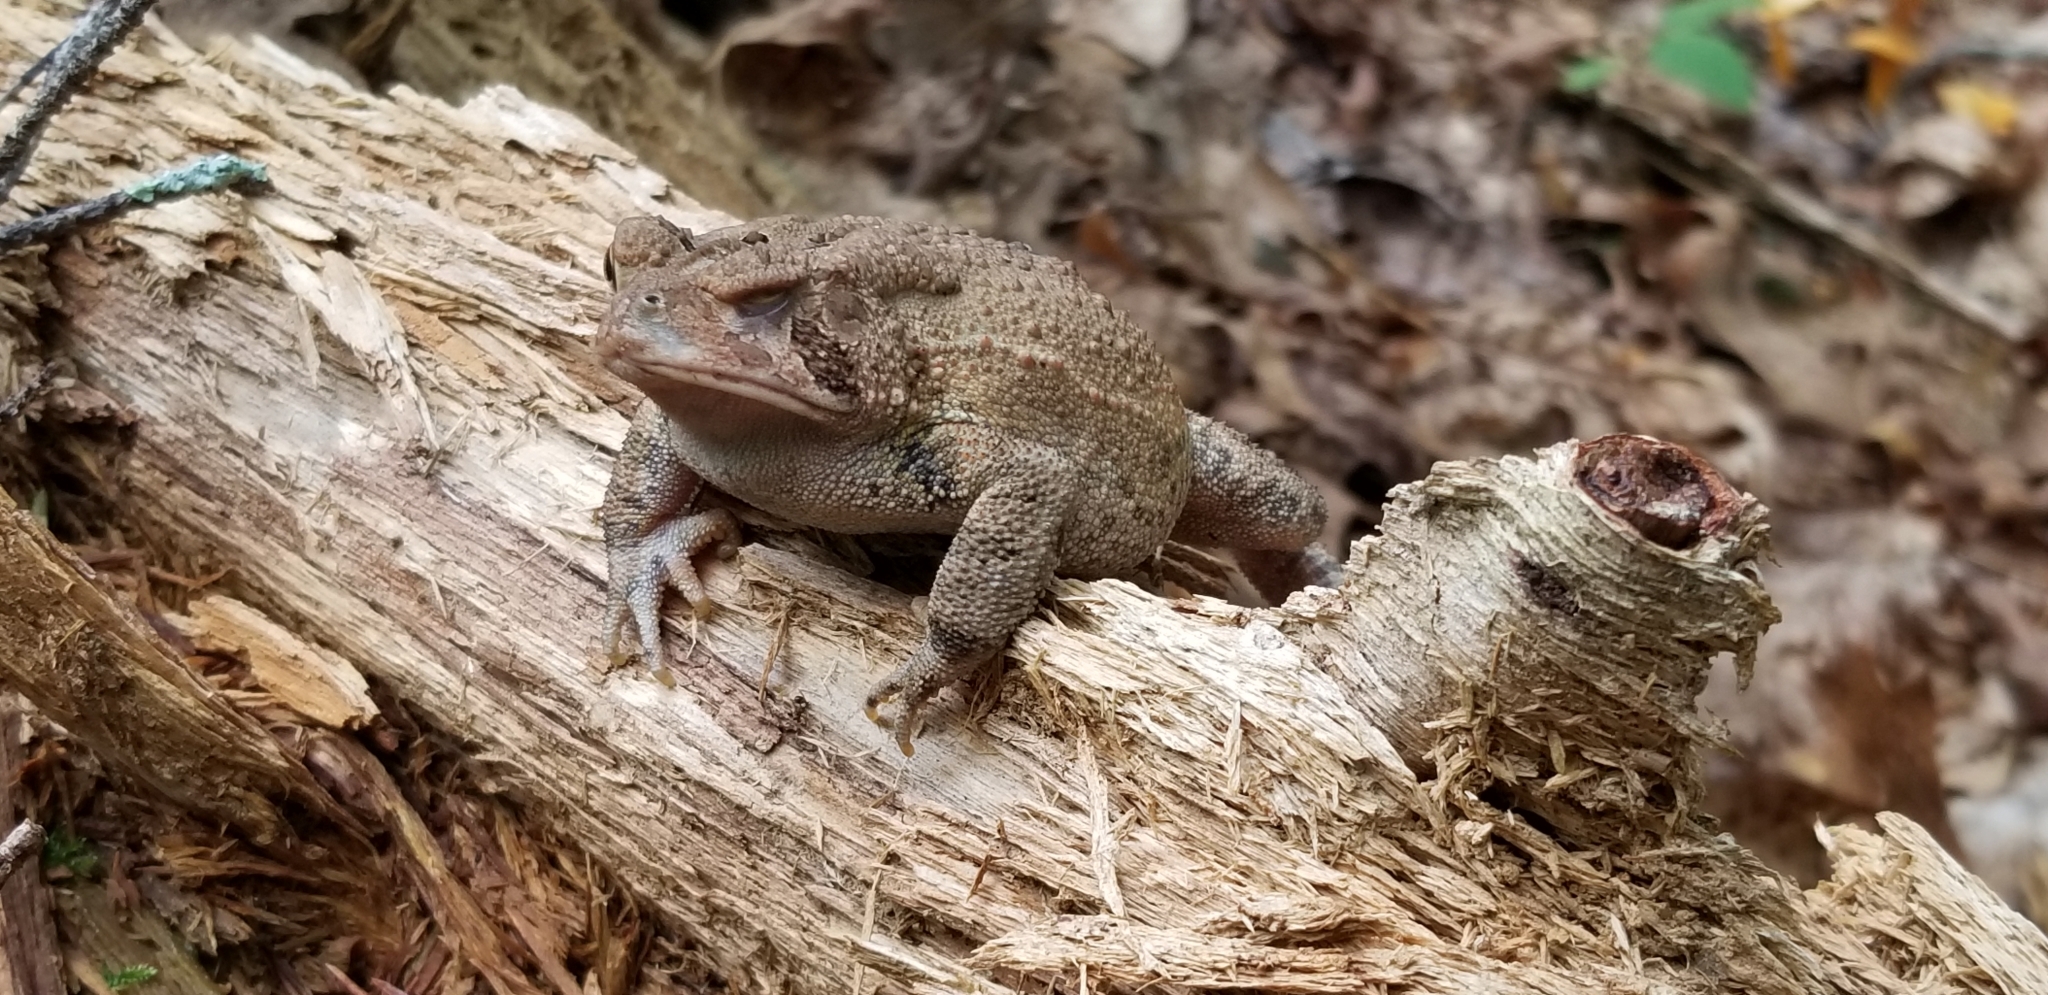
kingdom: Animalia
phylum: Chordata
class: Amphibia
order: Anura
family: Bufonidae
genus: Anaxyrus
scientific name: Anaxyrus americanus
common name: American toad
